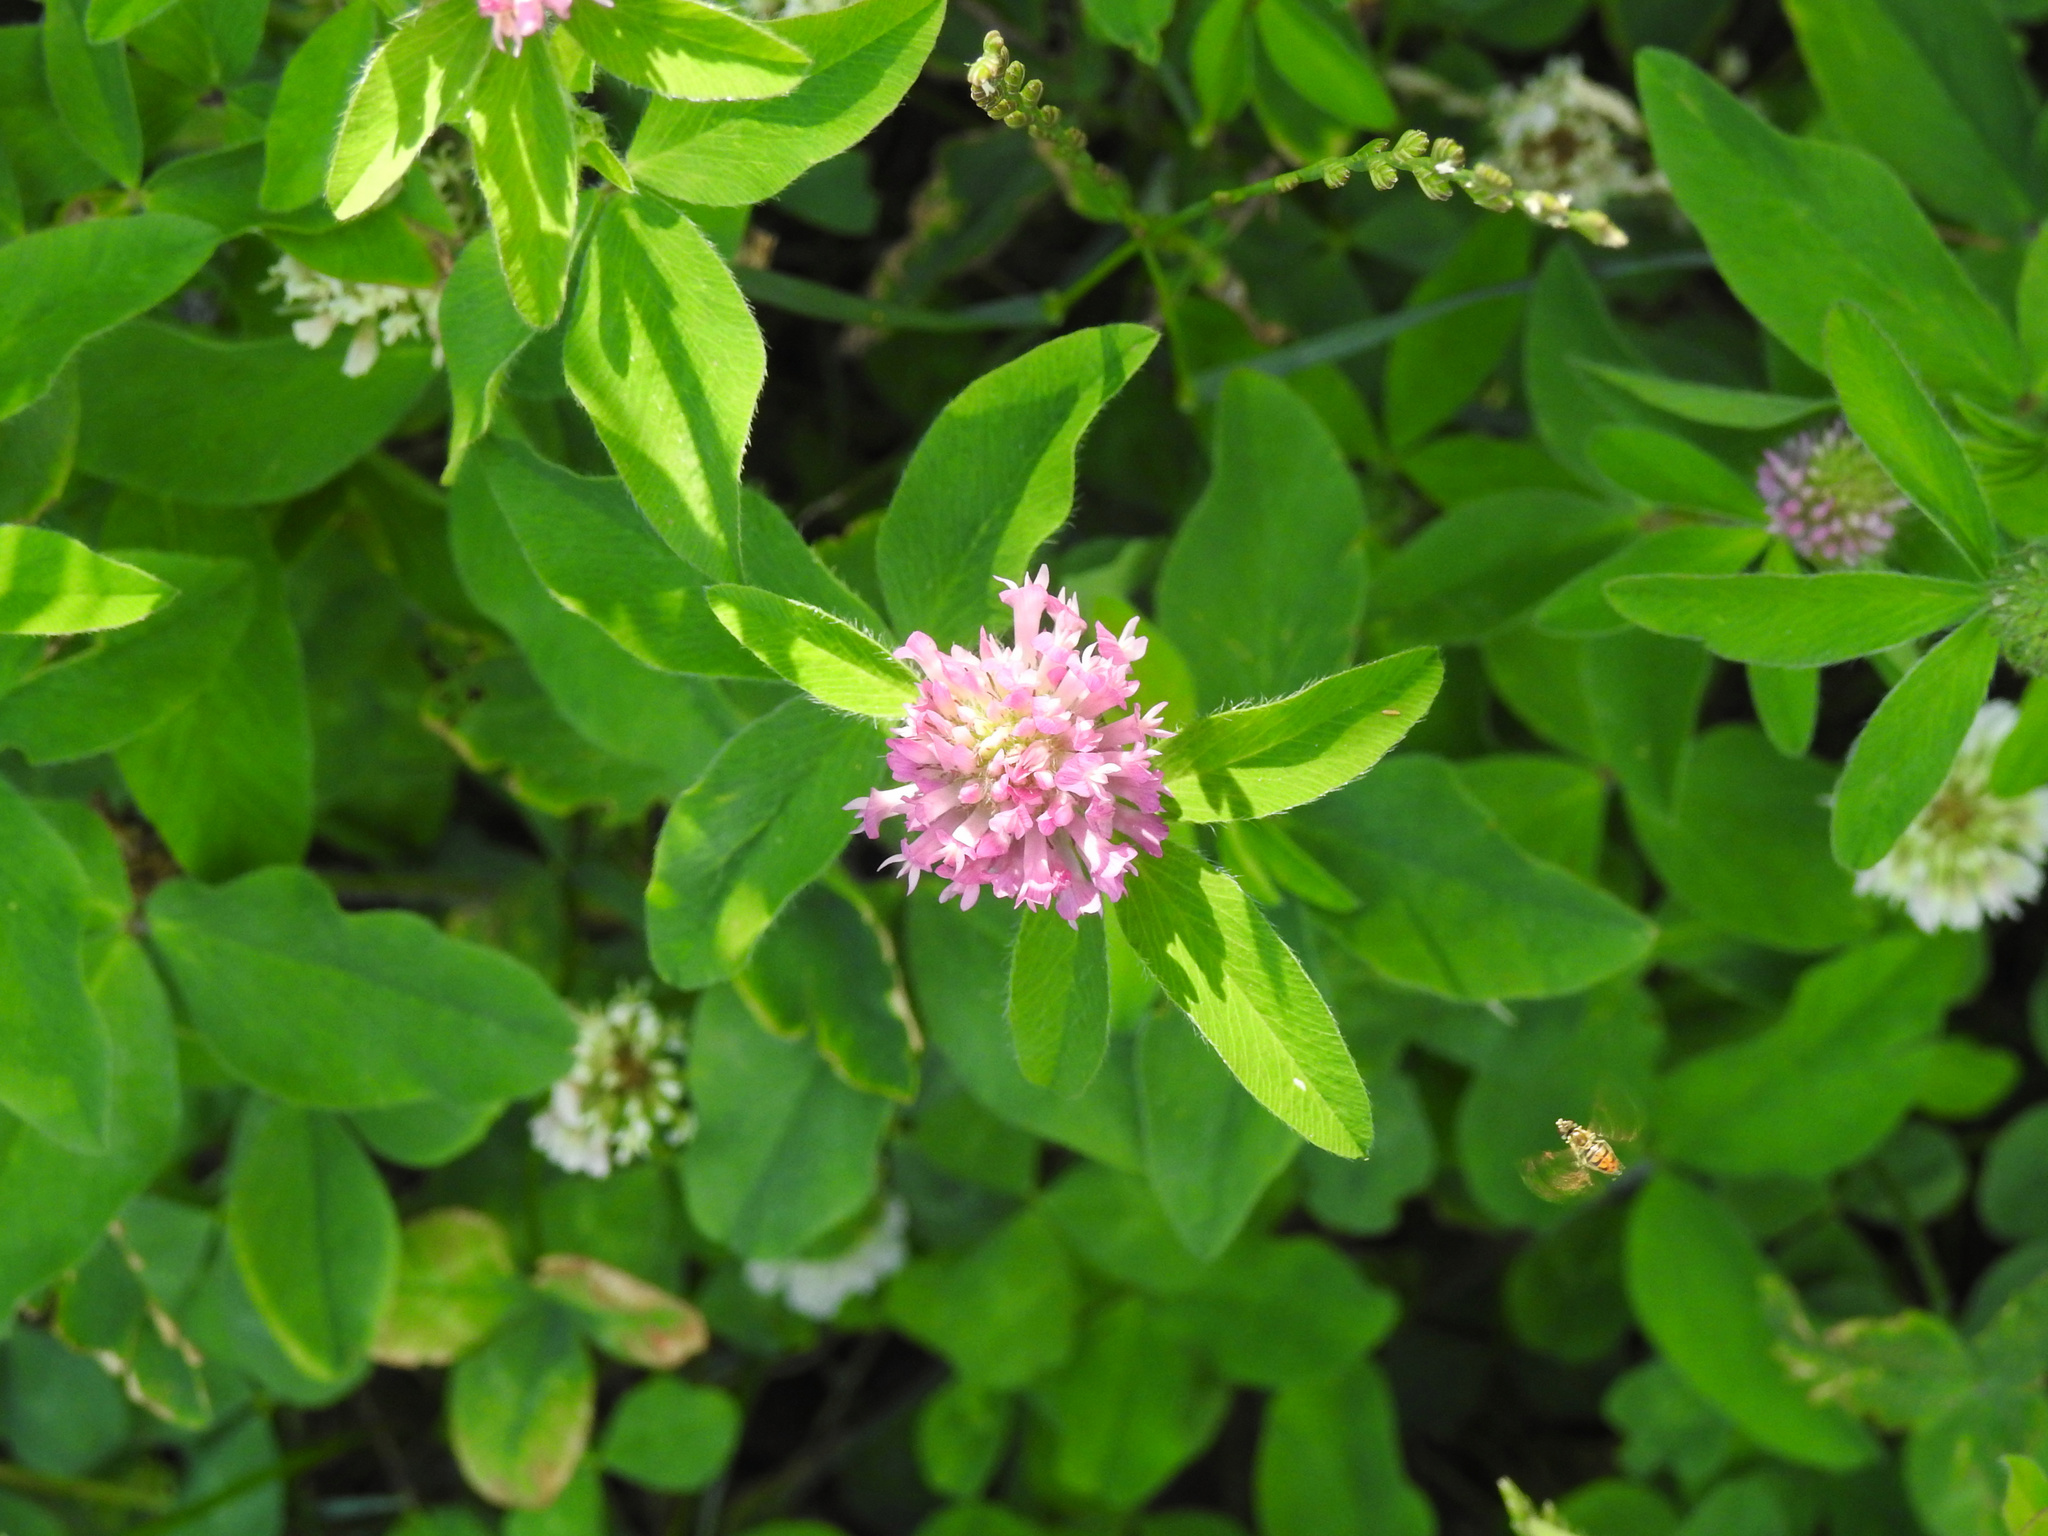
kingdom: Plantae
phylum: Tracheophyta
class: Magnoliopsida
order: Fabales
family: Fabaceae
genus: Trifolium
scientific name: Trifolium pratense
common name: Red clover
